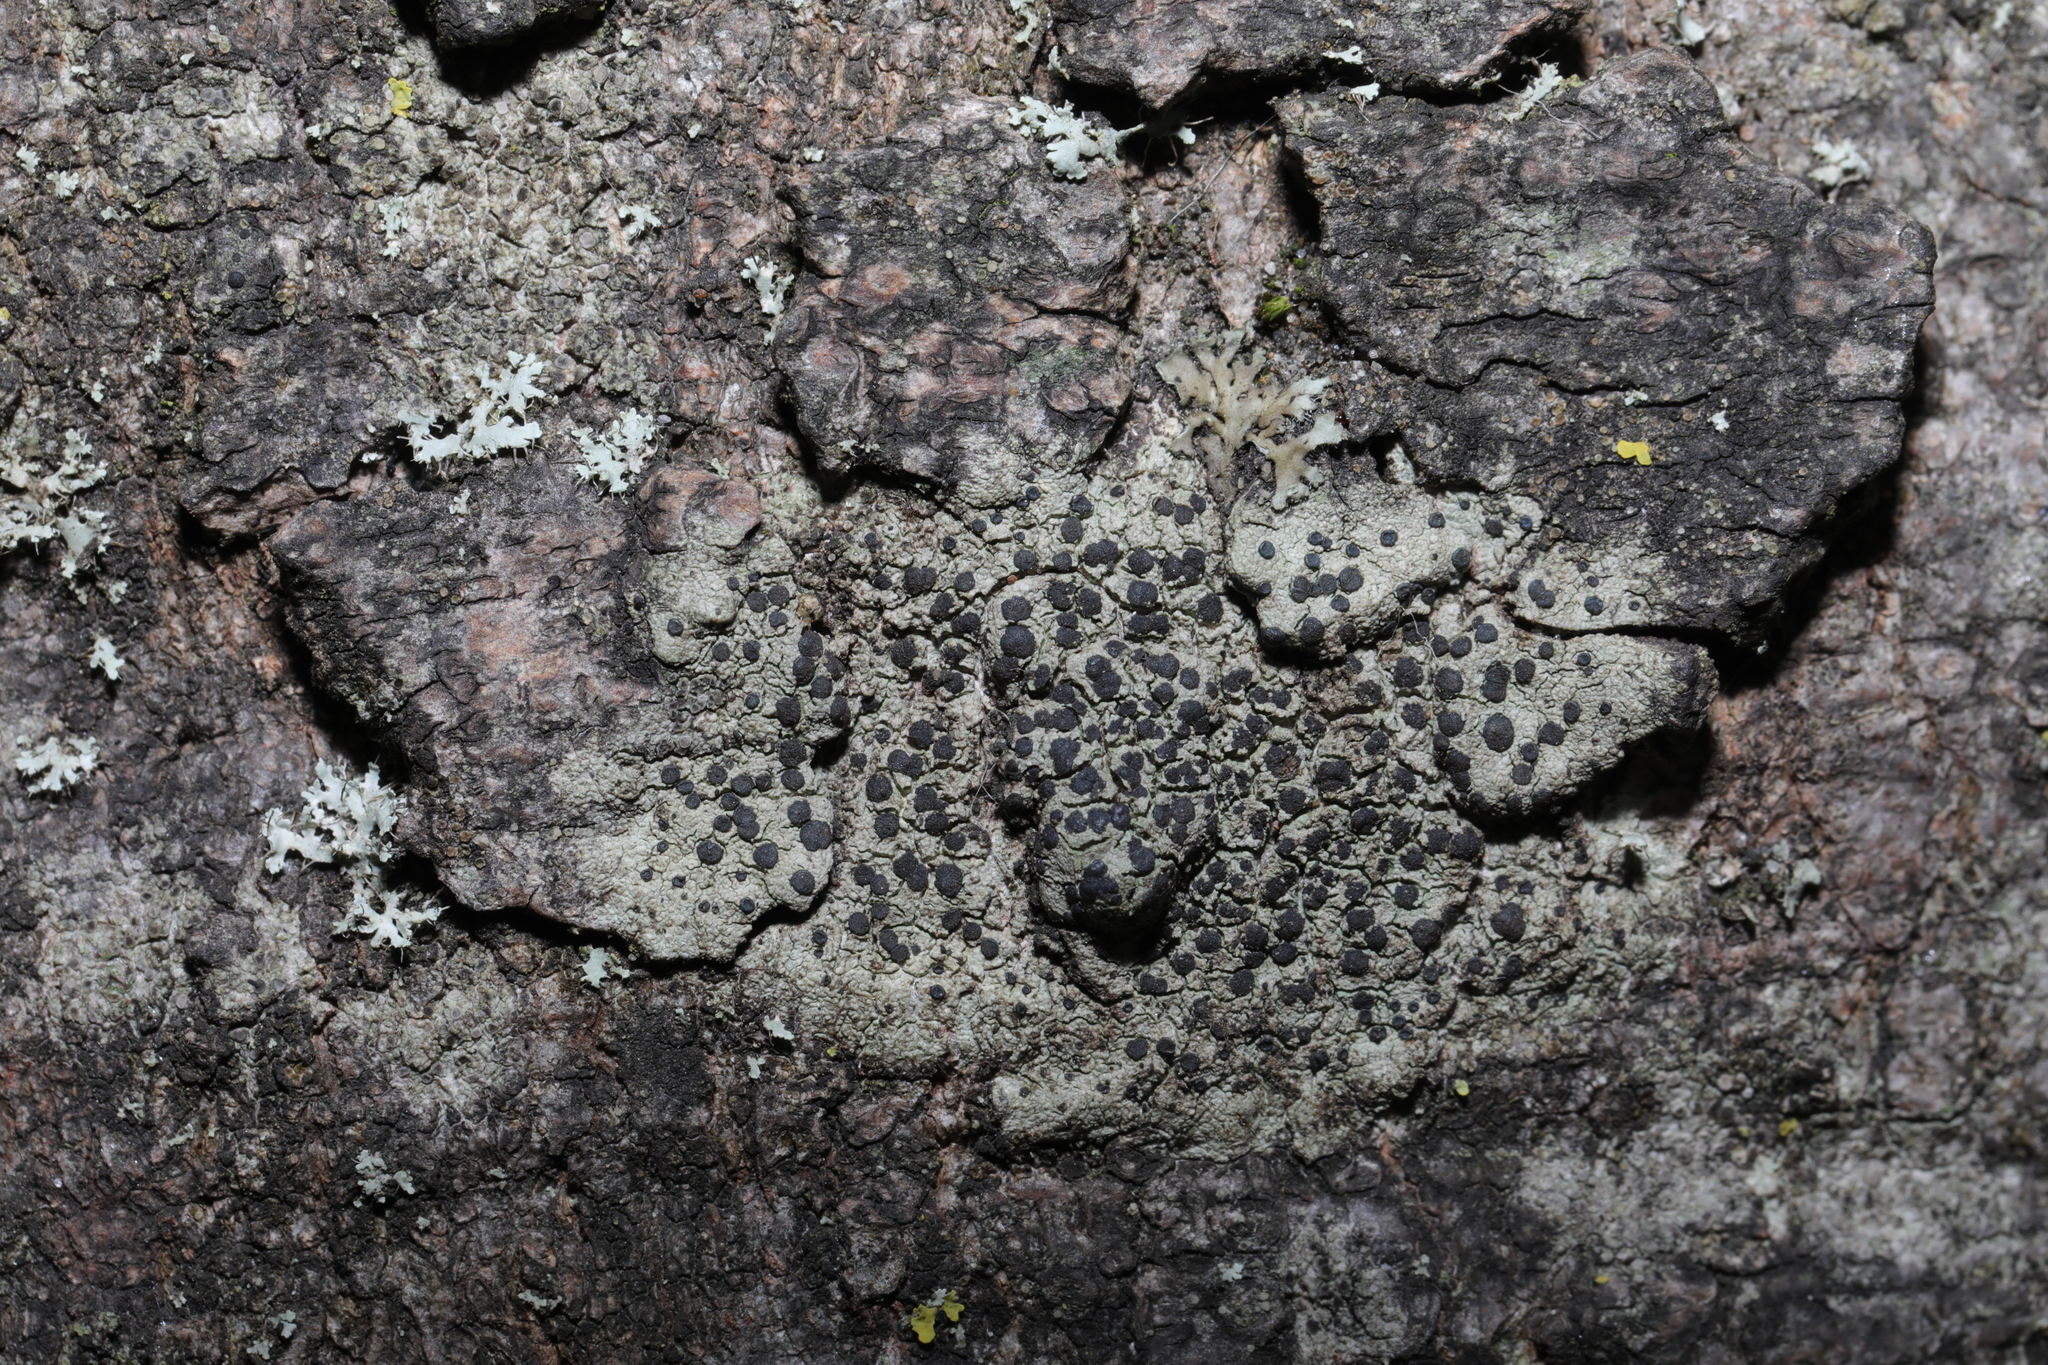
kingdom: Fungi
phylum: Ascomycota
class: Lecanoromycetes
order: Lecanorales
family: Lecanoraceae
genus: Lecidella
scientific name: Lecidella elaeochroma
